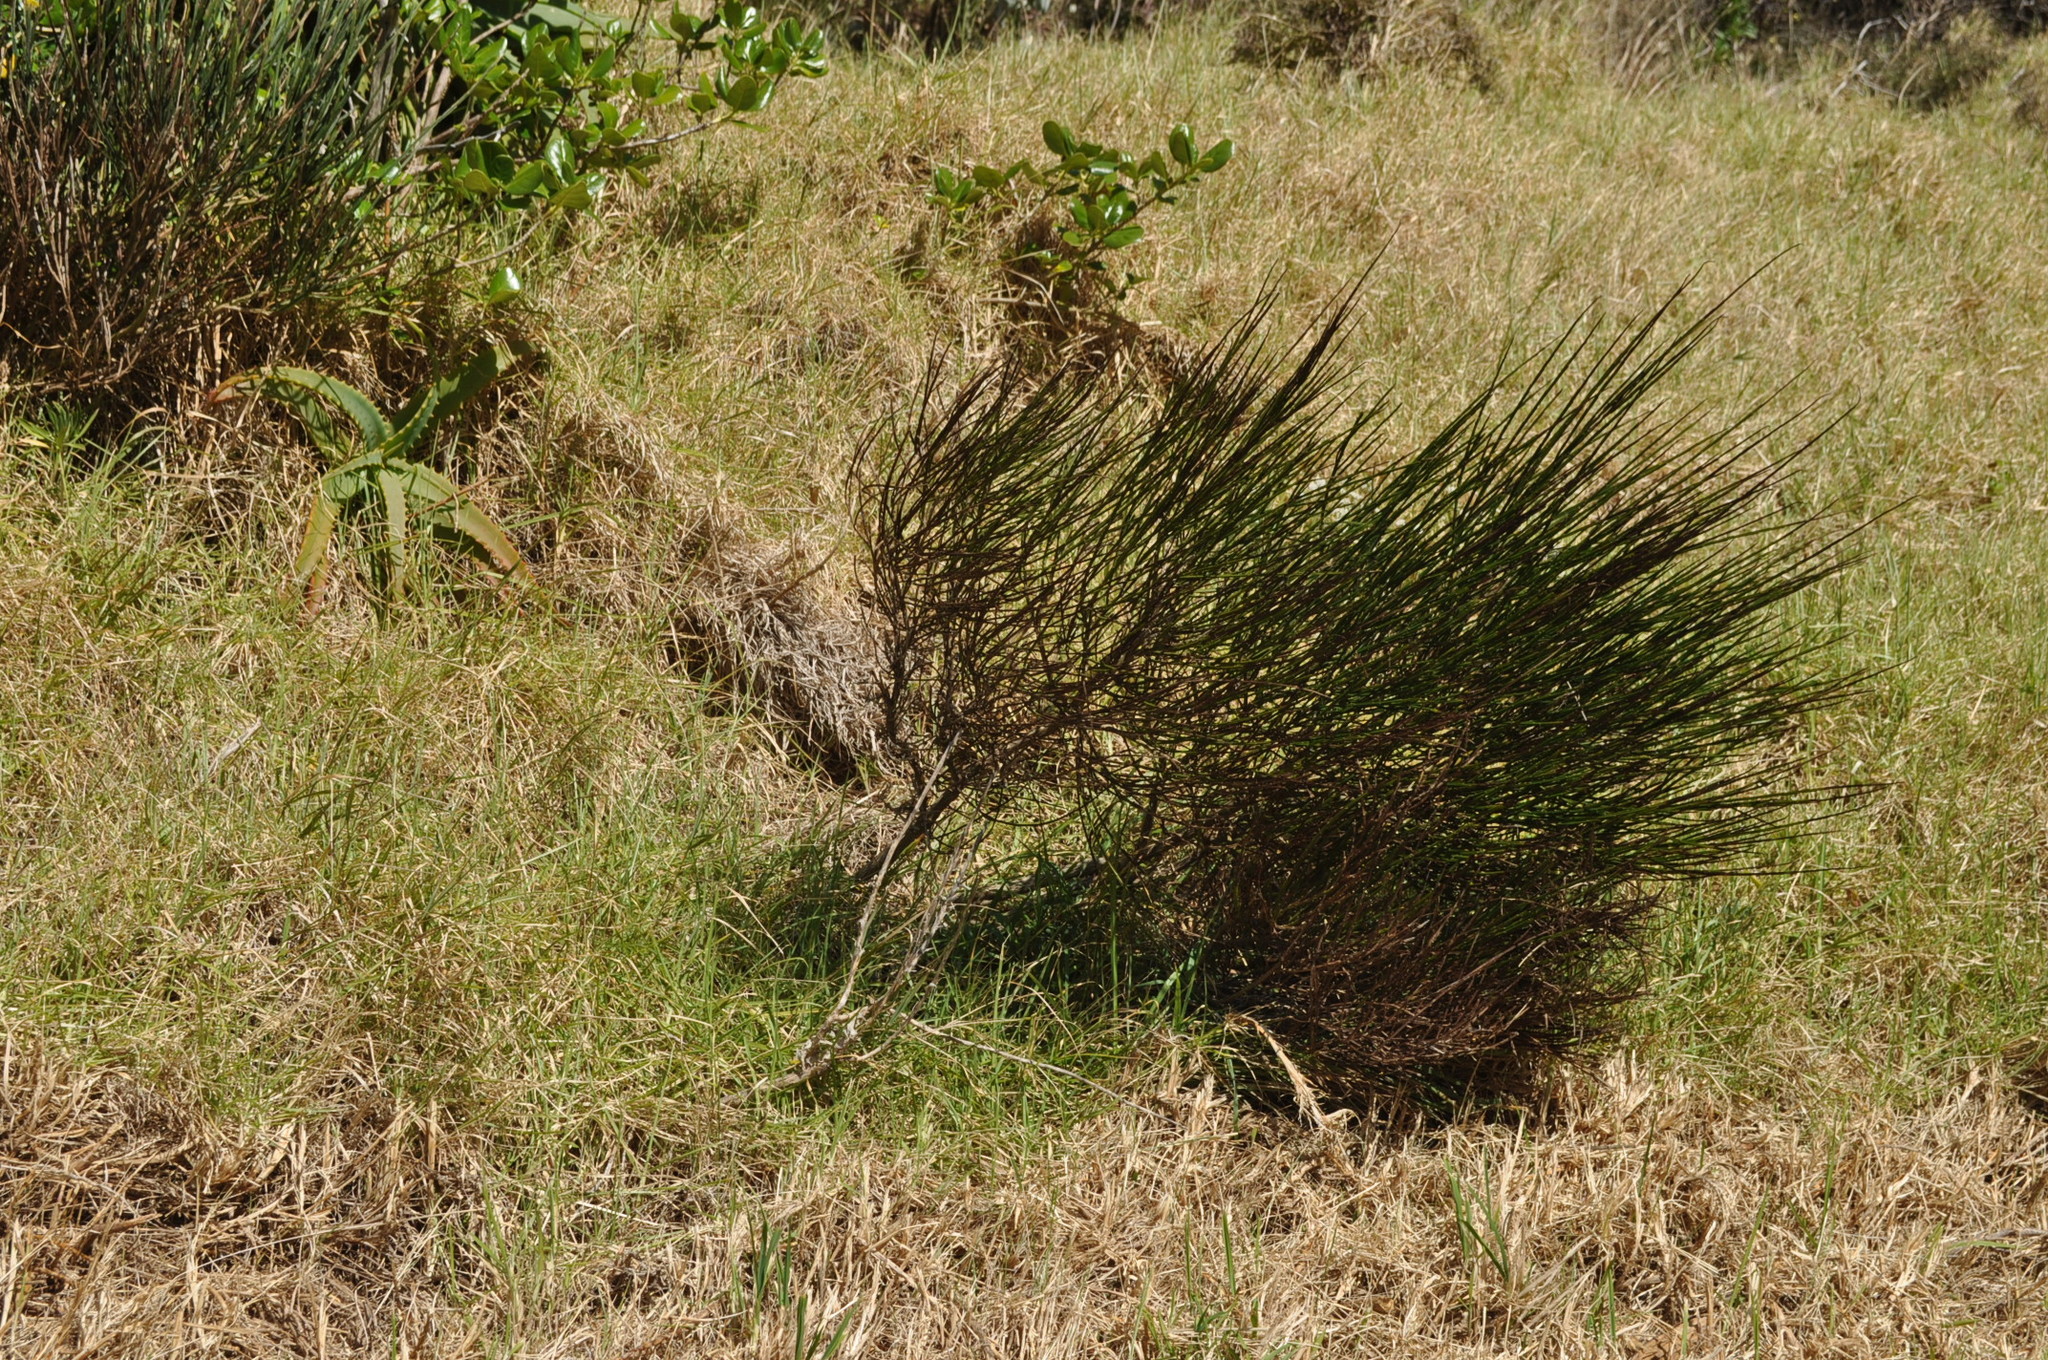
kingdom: Plantae
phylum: Tracheophyta
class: Magnoliopsida
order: Fabales
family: Fabaceae
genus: Cytisus
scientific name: Cytisus scoparius
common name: Scotch broom
